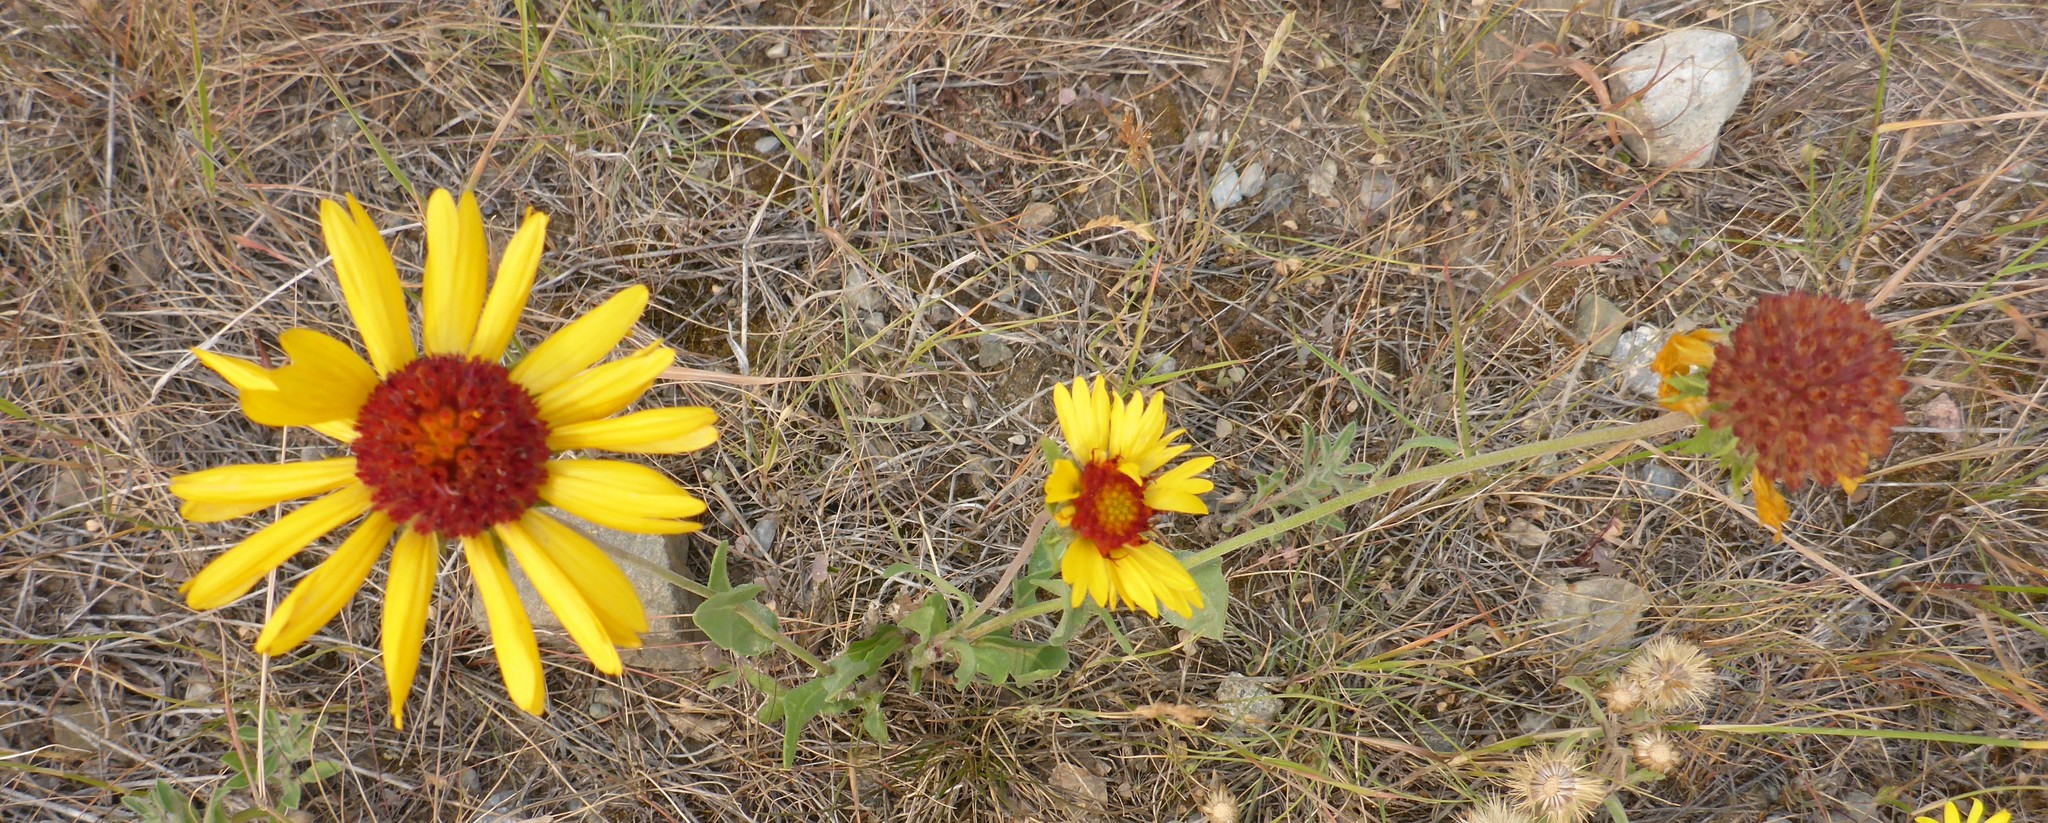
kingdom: Plantae
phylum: Tracheophyta
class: Magnoliopsida
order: Asterales
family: Asteraceae
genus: Gaillardia
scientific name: Gaillardia aristata
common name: Blanket-flower
